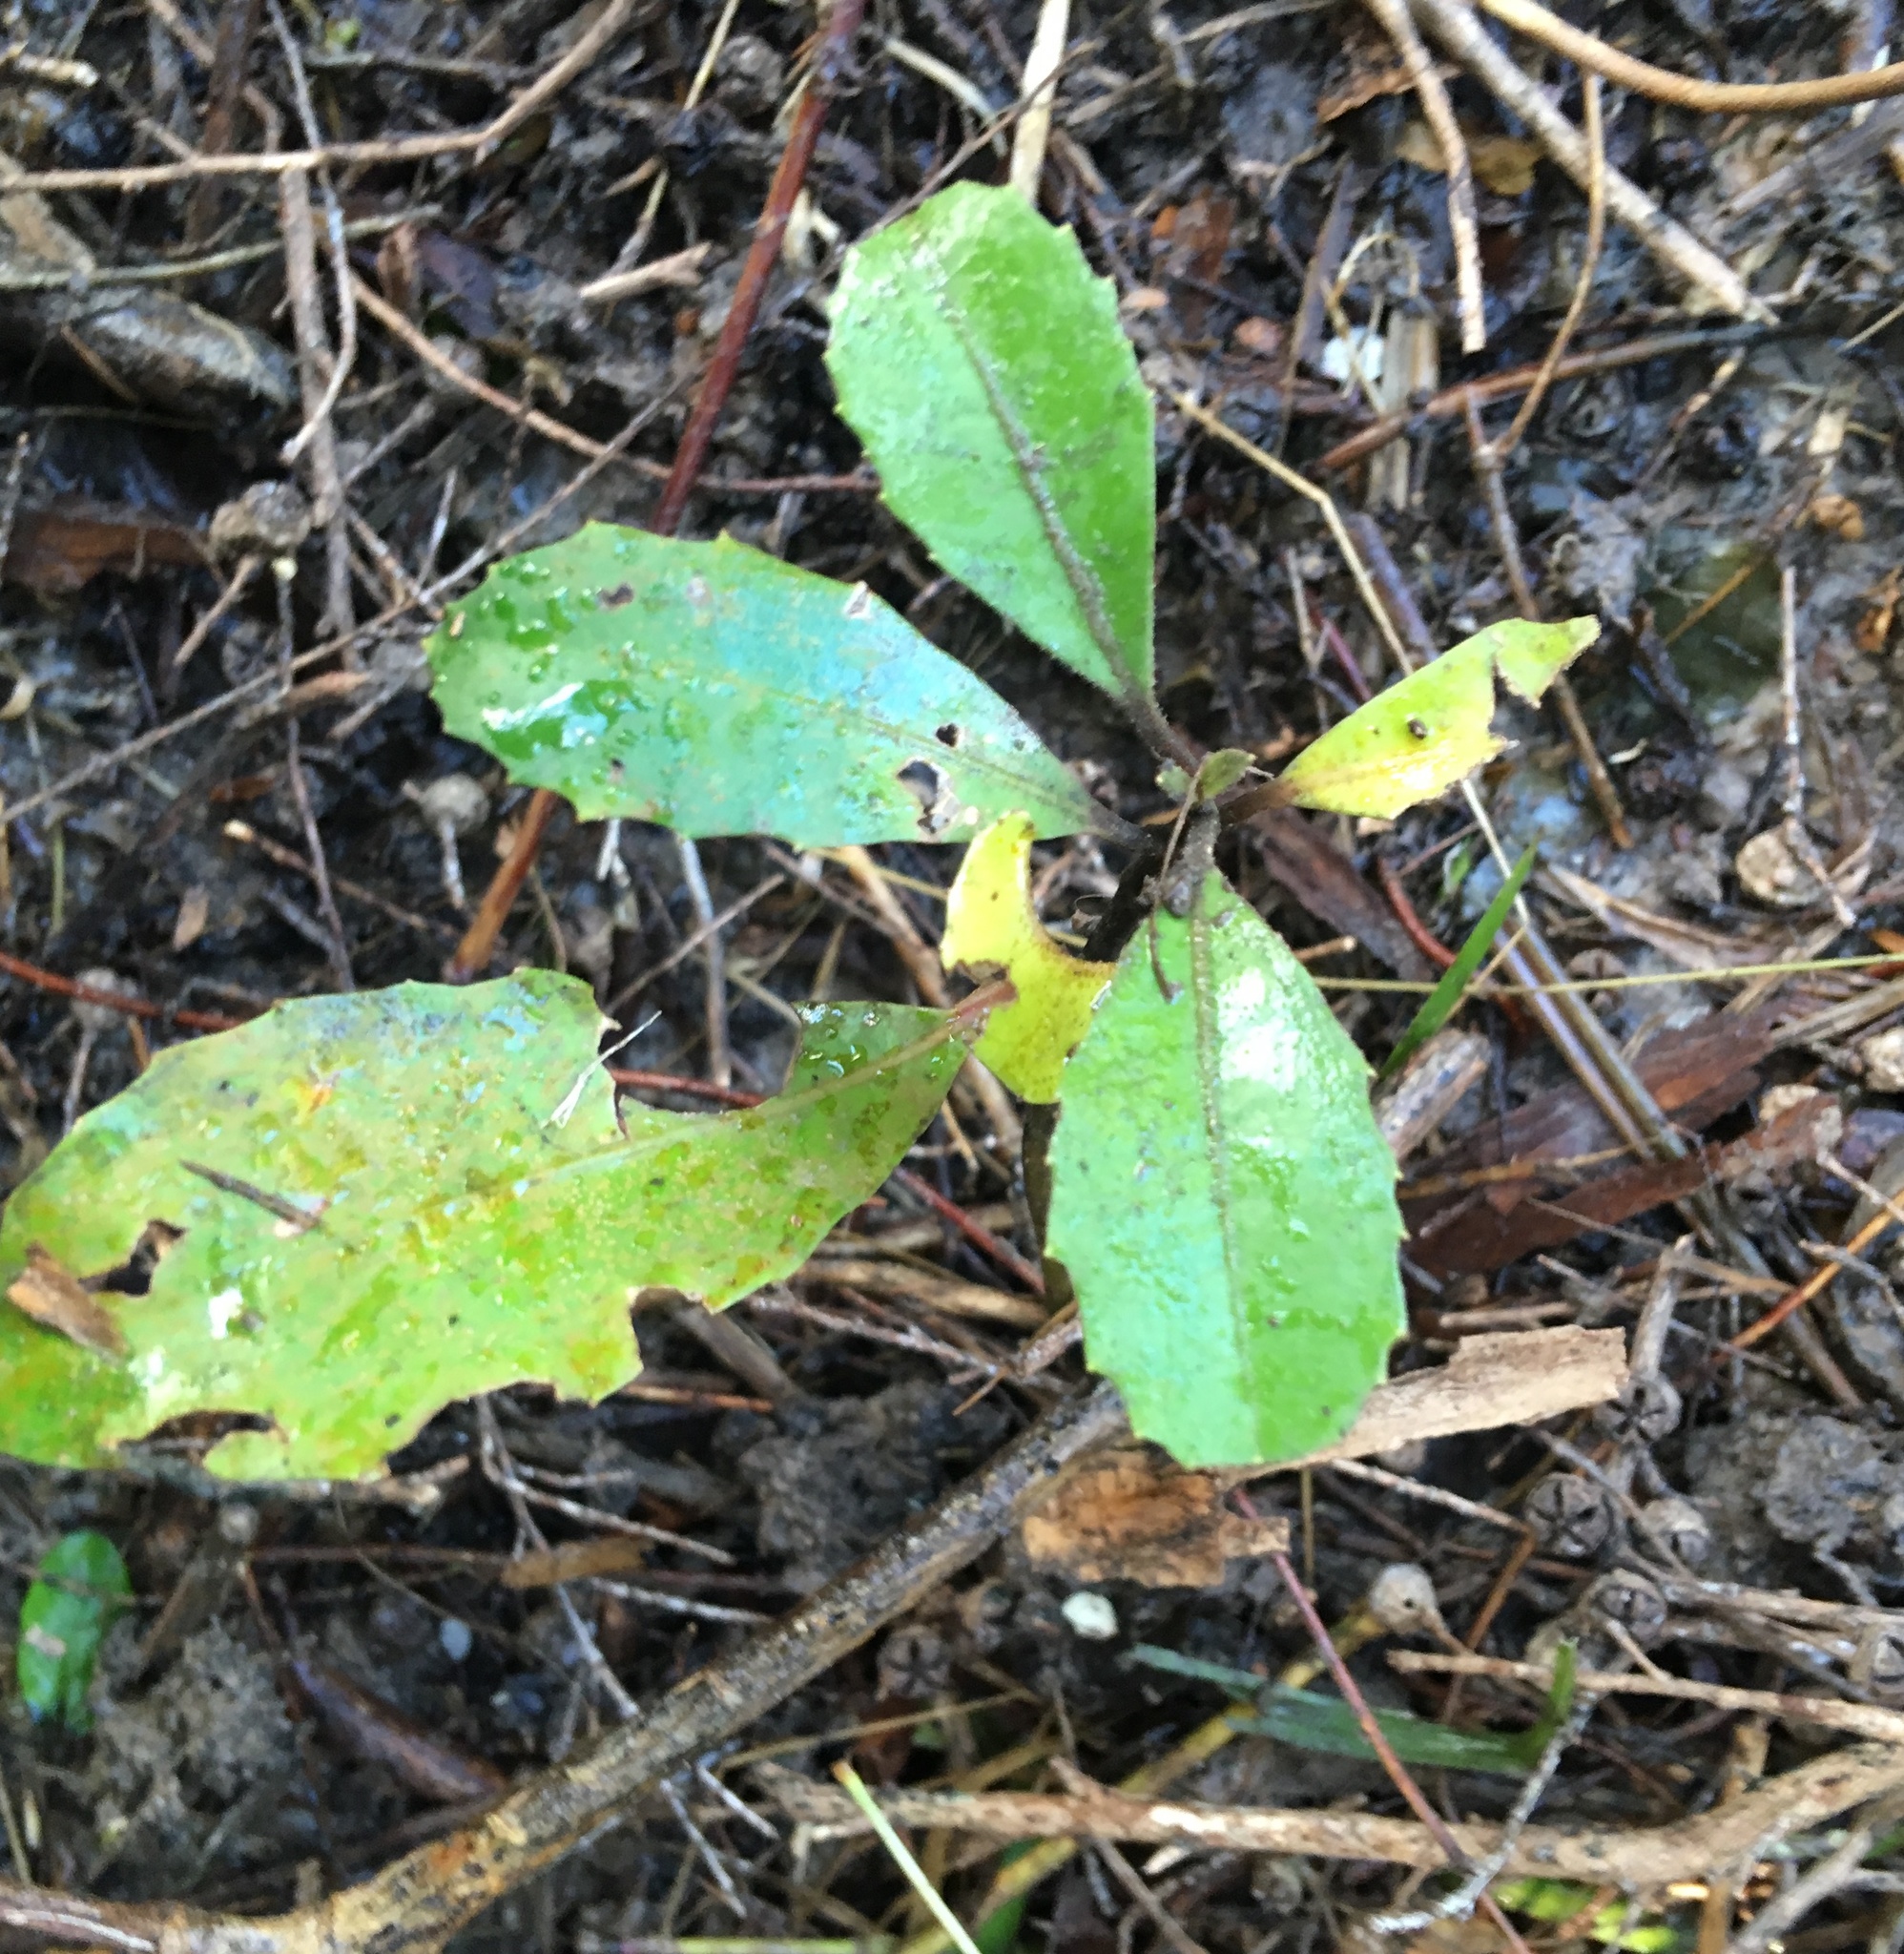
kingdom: Plantae
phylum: Tracheophyta
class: Magnoliopsida
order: Laurales
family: Monimiaceae
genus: Hedycarya
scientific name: Hedycarya arborea
